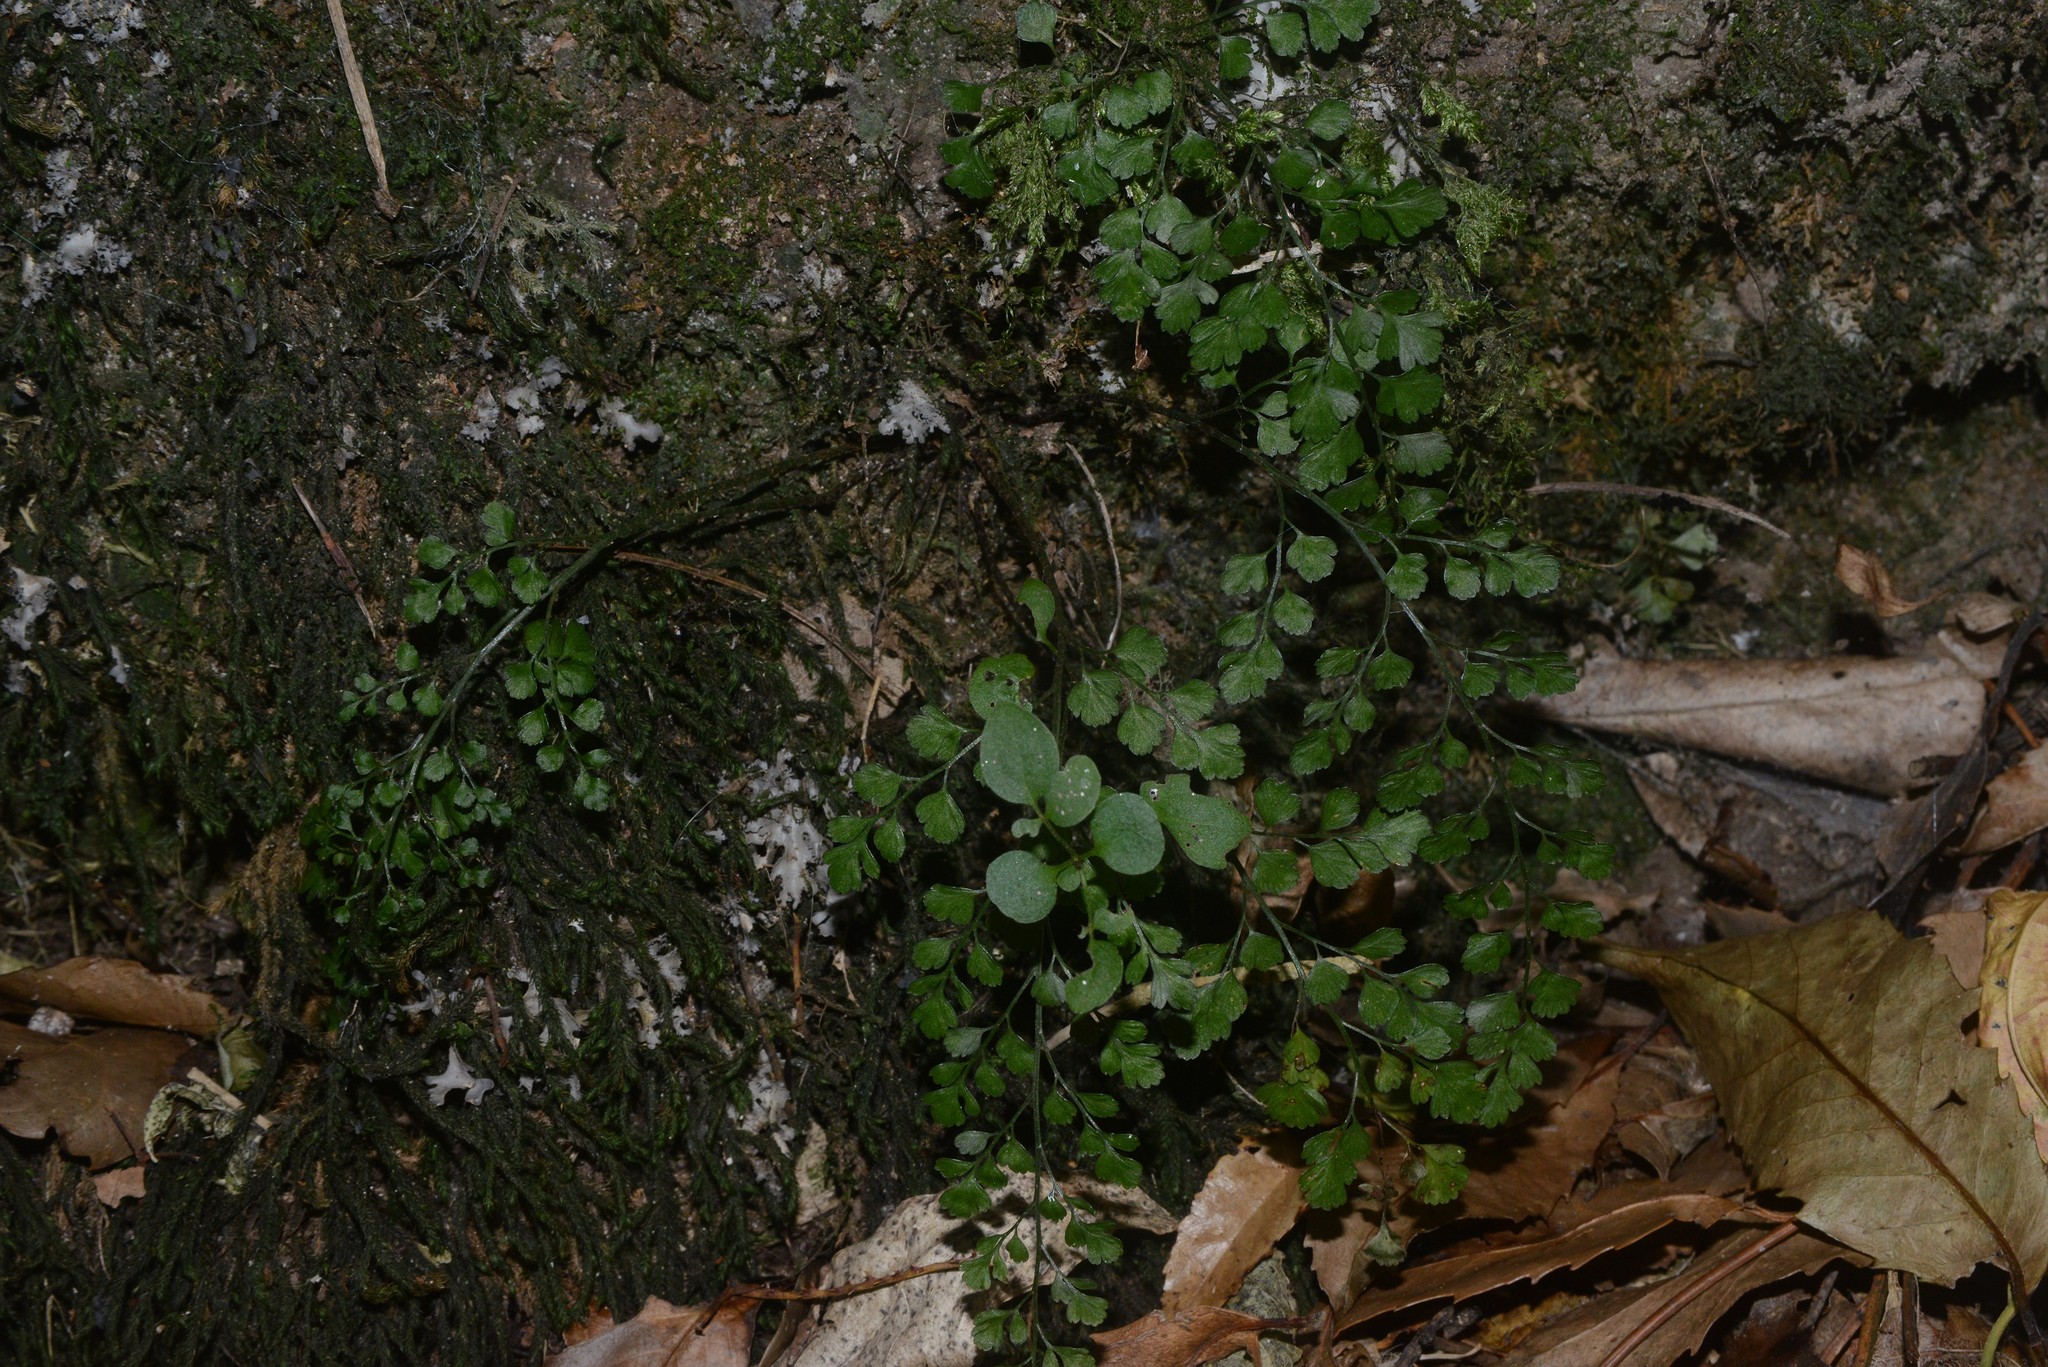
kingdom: Plantae
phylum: Tracheophyta
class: Polypodiopsida
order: Polypodiales
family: Aspleniaceae
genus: Asplenium
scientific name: Asplenium hookerianum
